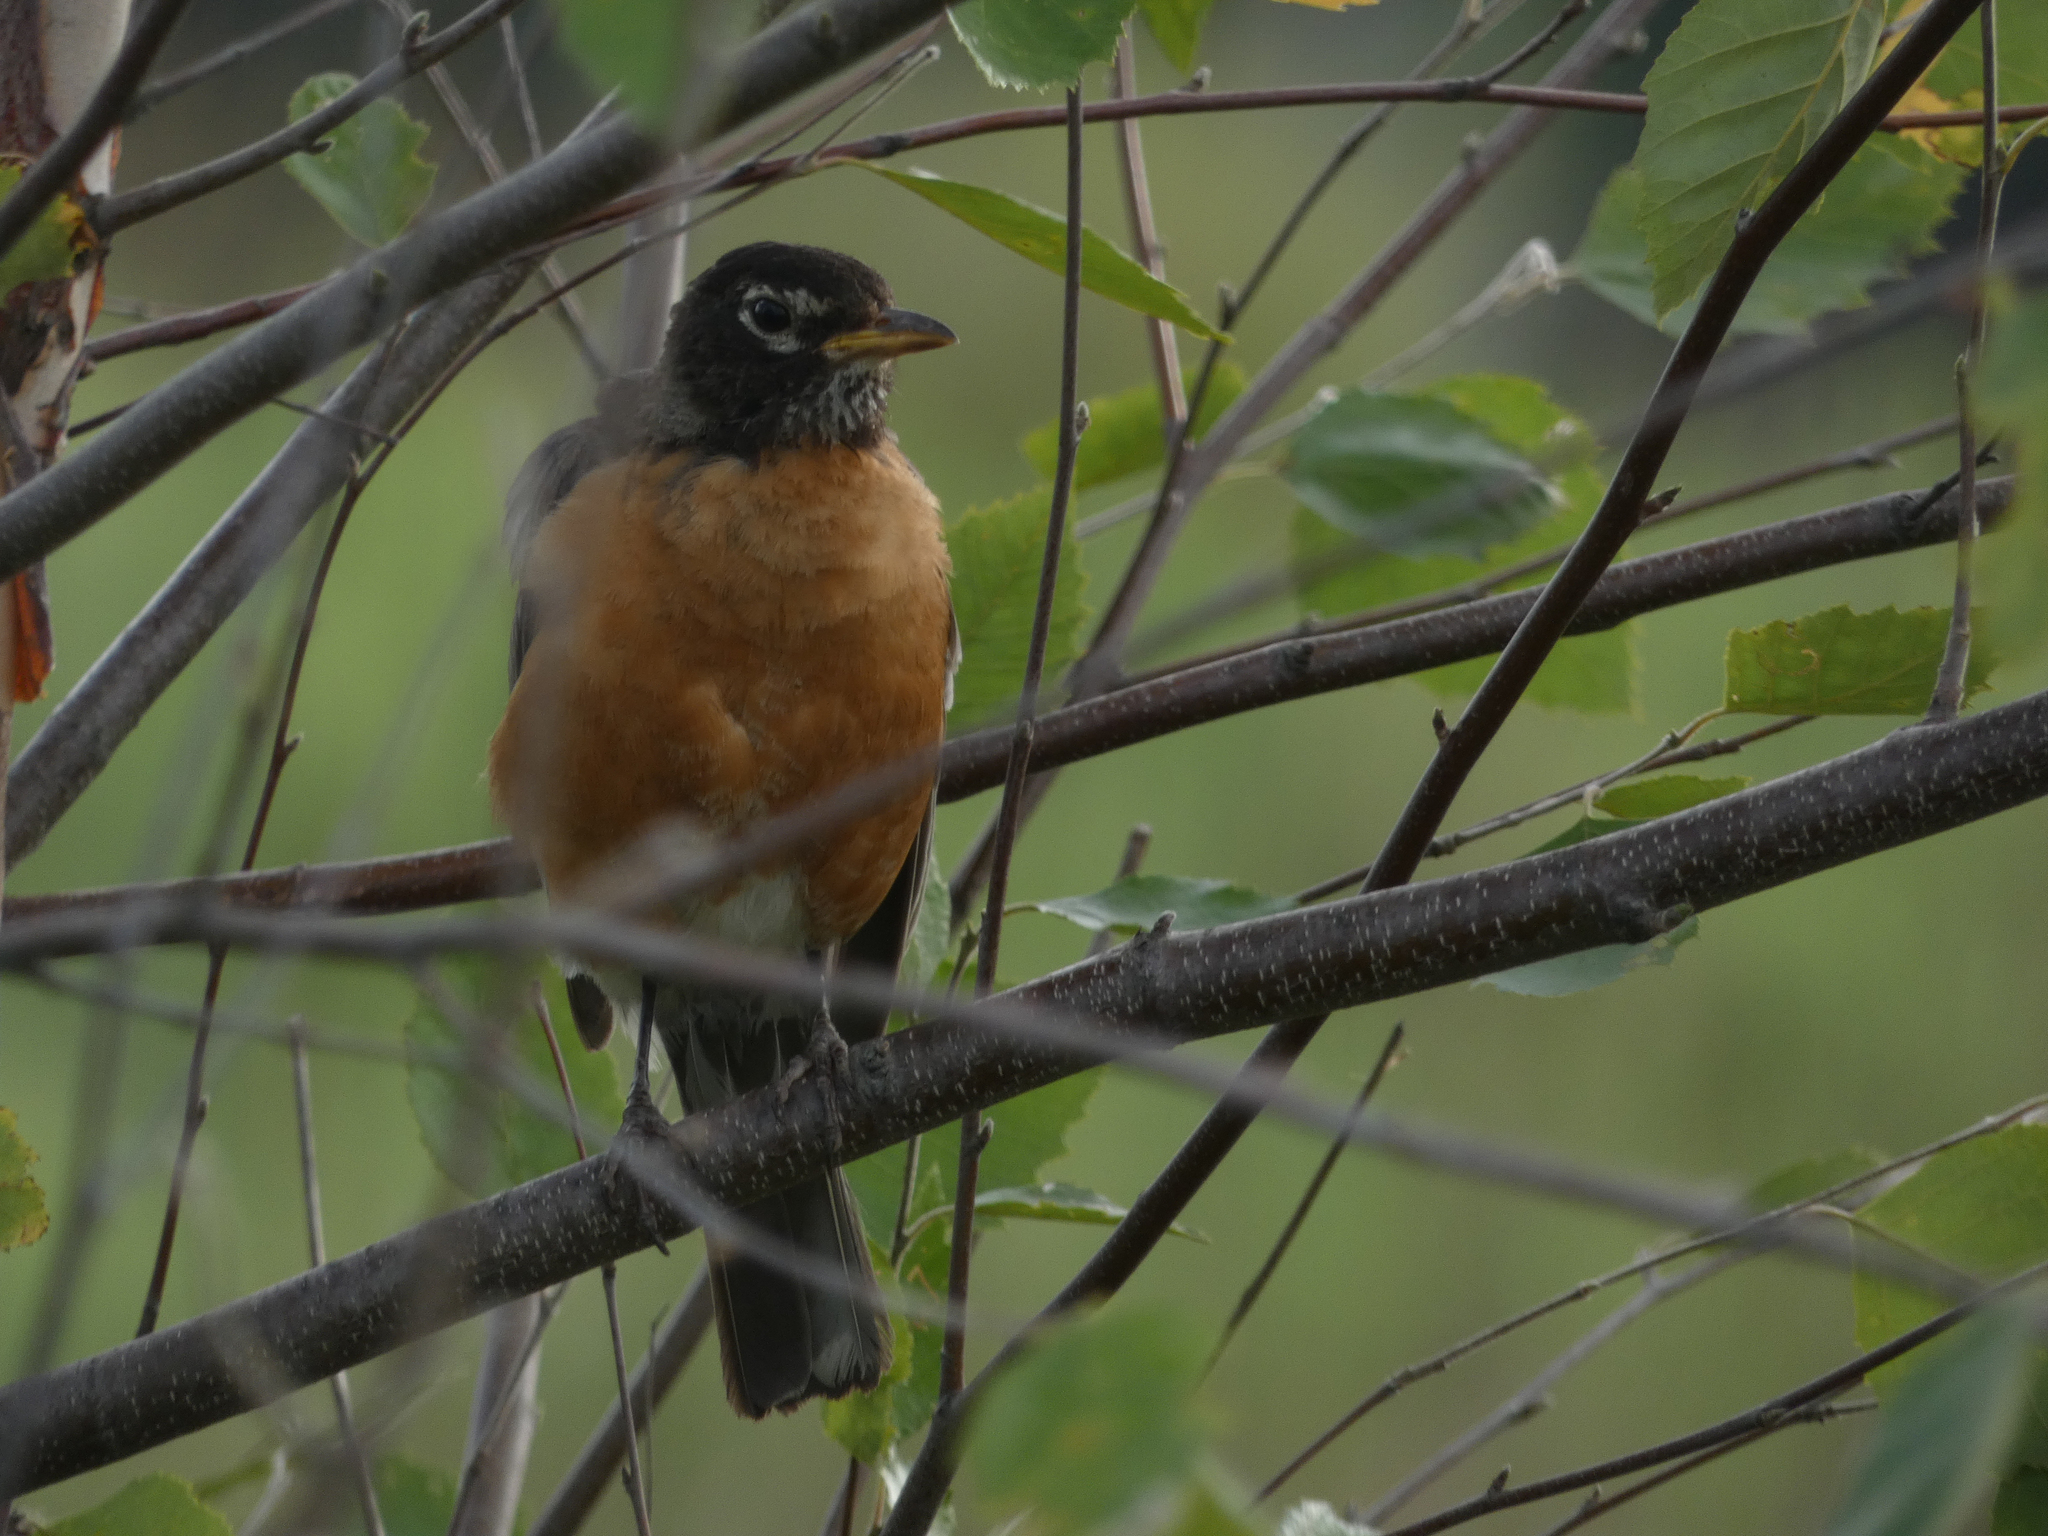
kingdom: Animalia
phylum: Chordata
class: Aves
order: Passeriformes
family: Turdidae
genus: Turdus
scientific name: Turdus migratorius
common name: American robin
